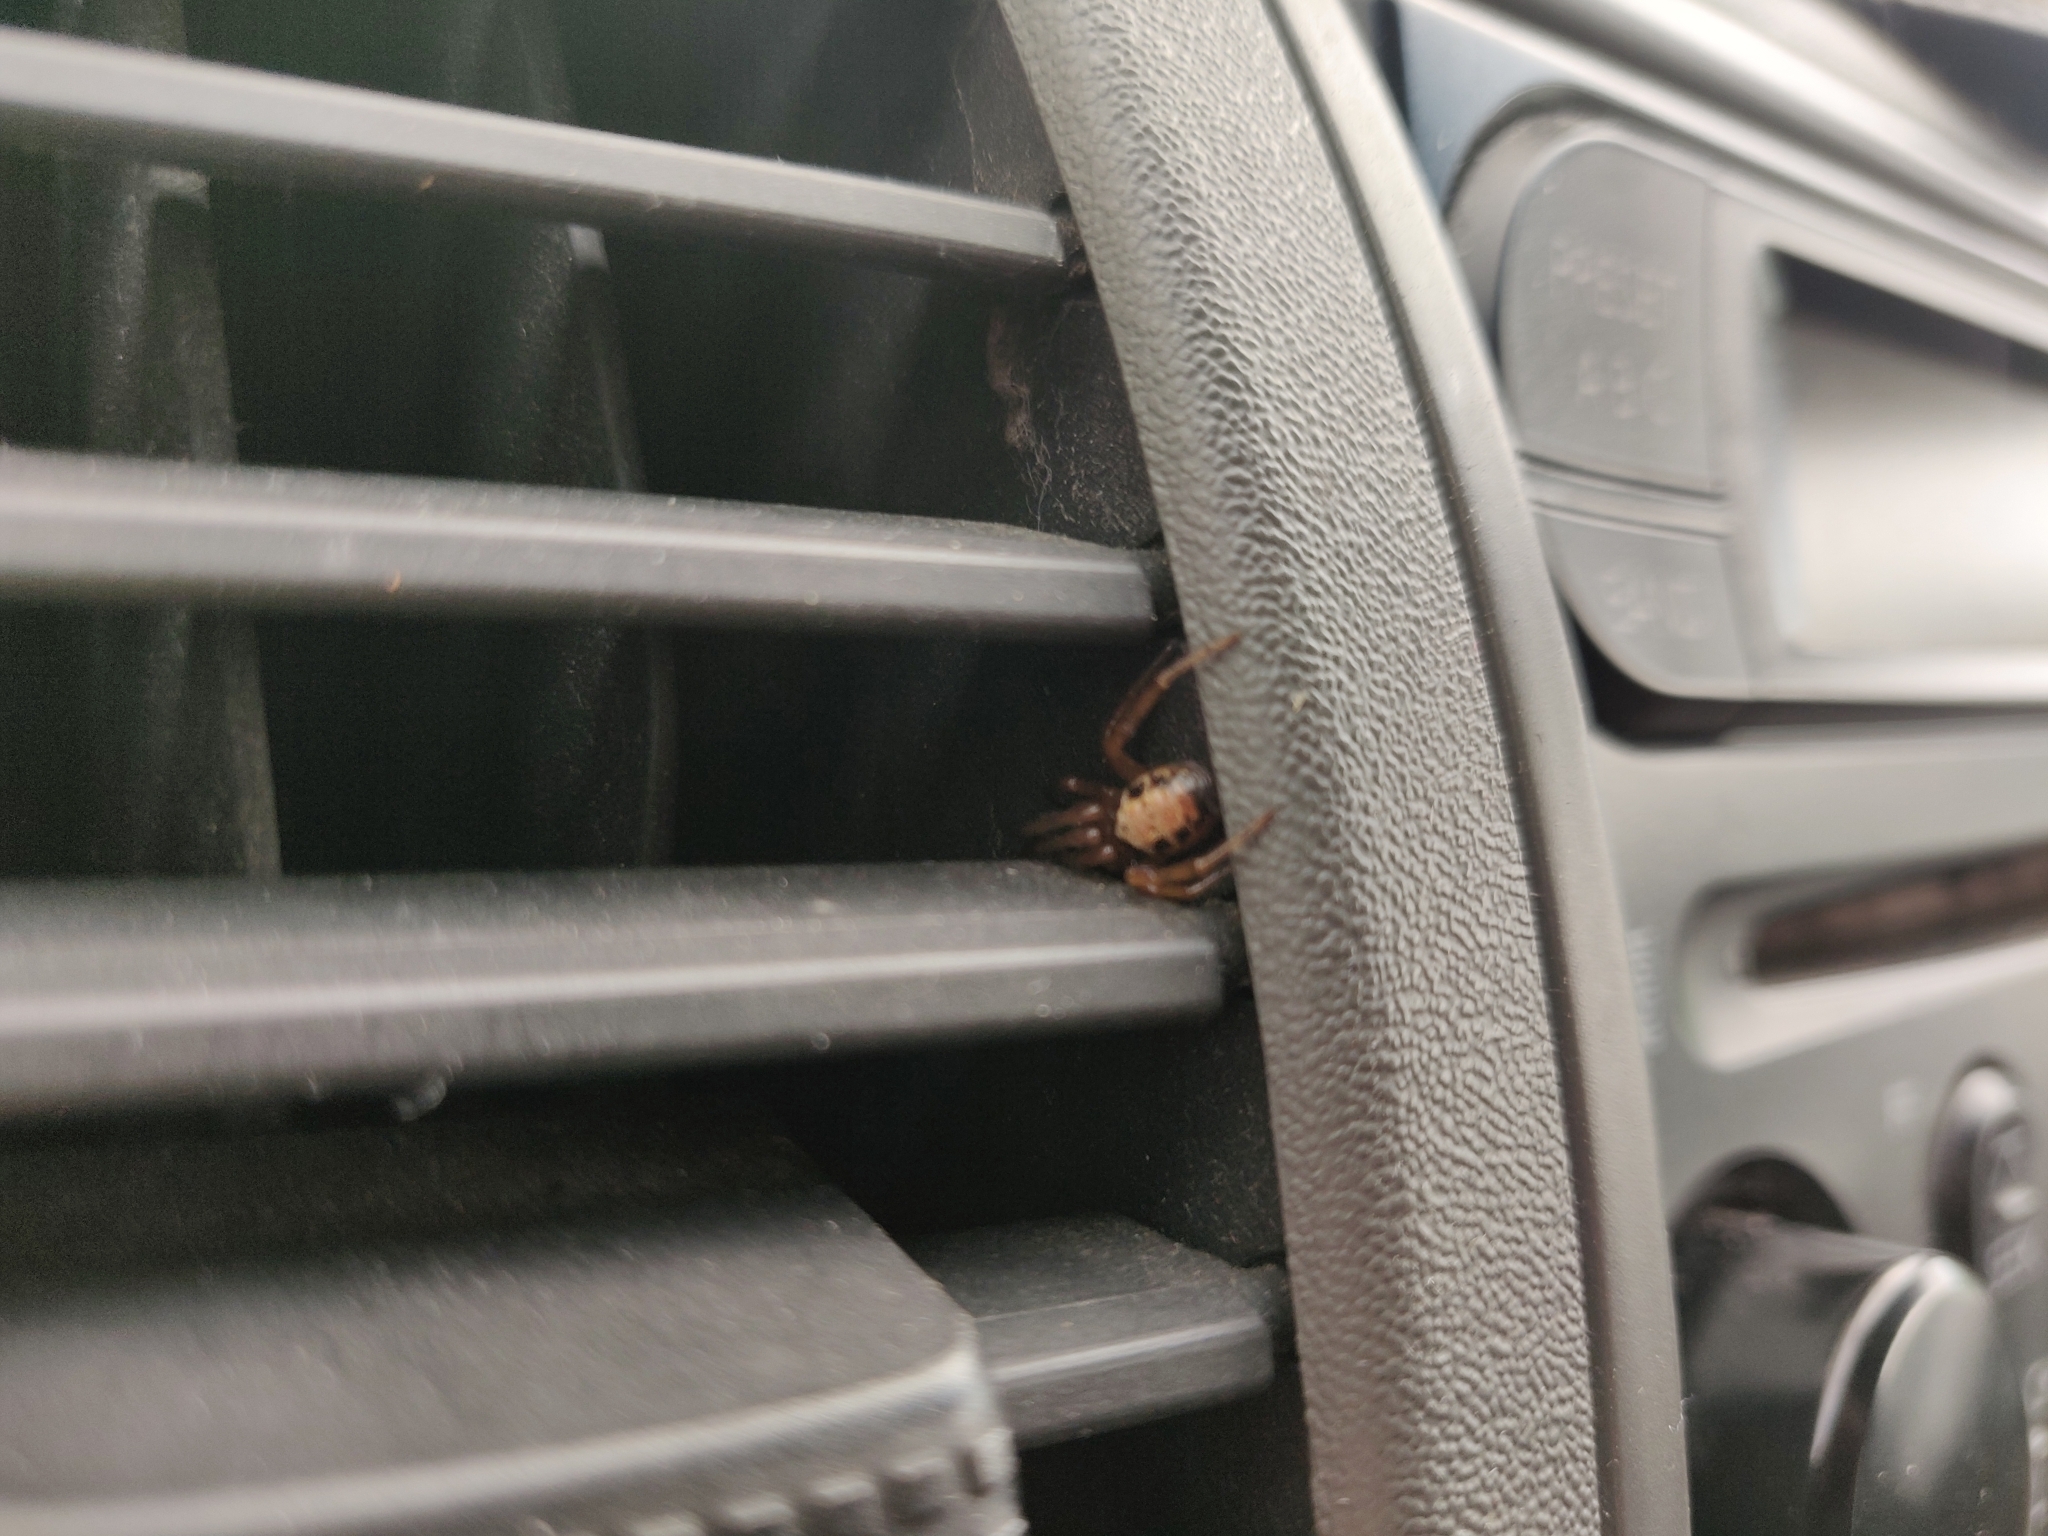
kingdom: Animalia
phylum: Arthropoda
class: Arachnida
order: Araneae
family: Theridiidae
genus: Steatoda
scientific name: Steatoda nobilis
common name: Cobweb weaver
